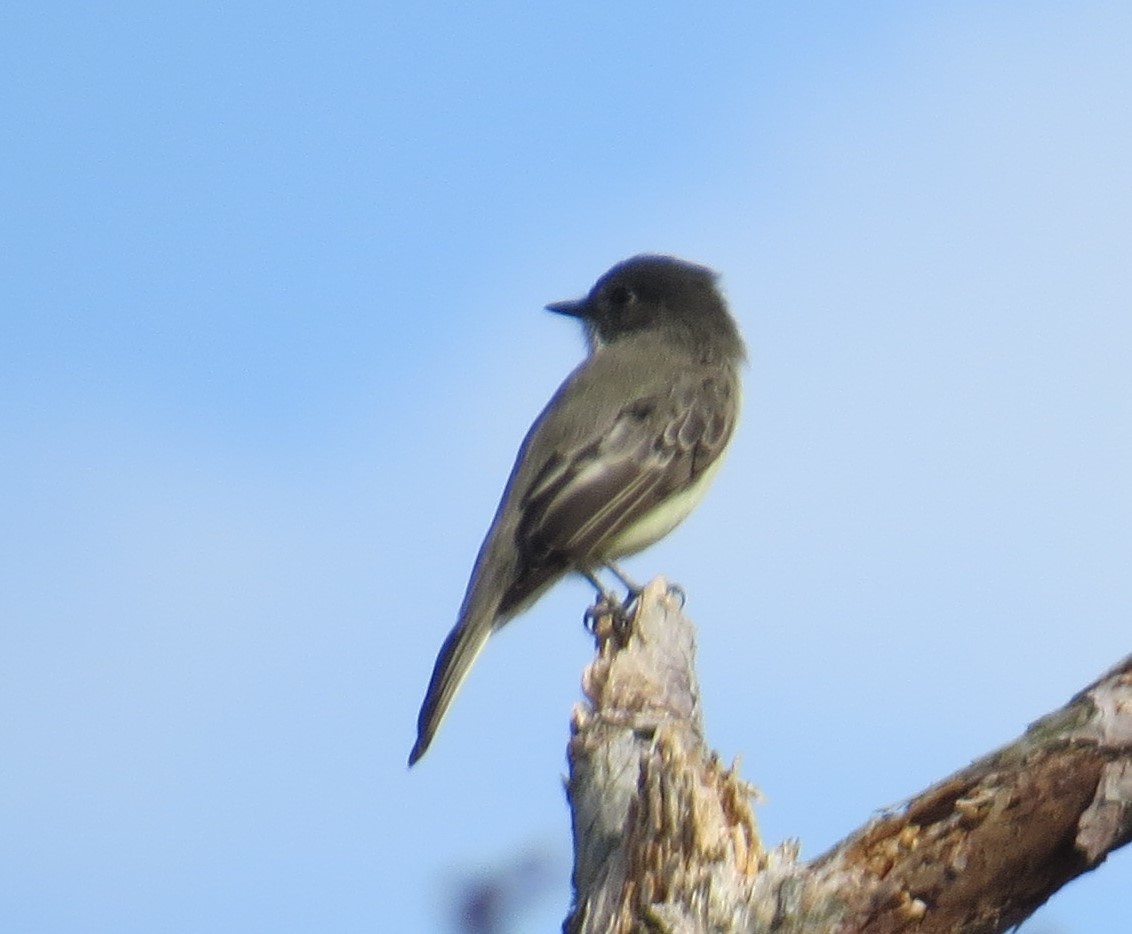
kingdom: Animalia
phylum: Chordata
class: Aves
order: Passeriformes
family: Tyrannidae
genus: Sayornis
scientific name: Sayornis phoebe
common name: Eastern phoebe
